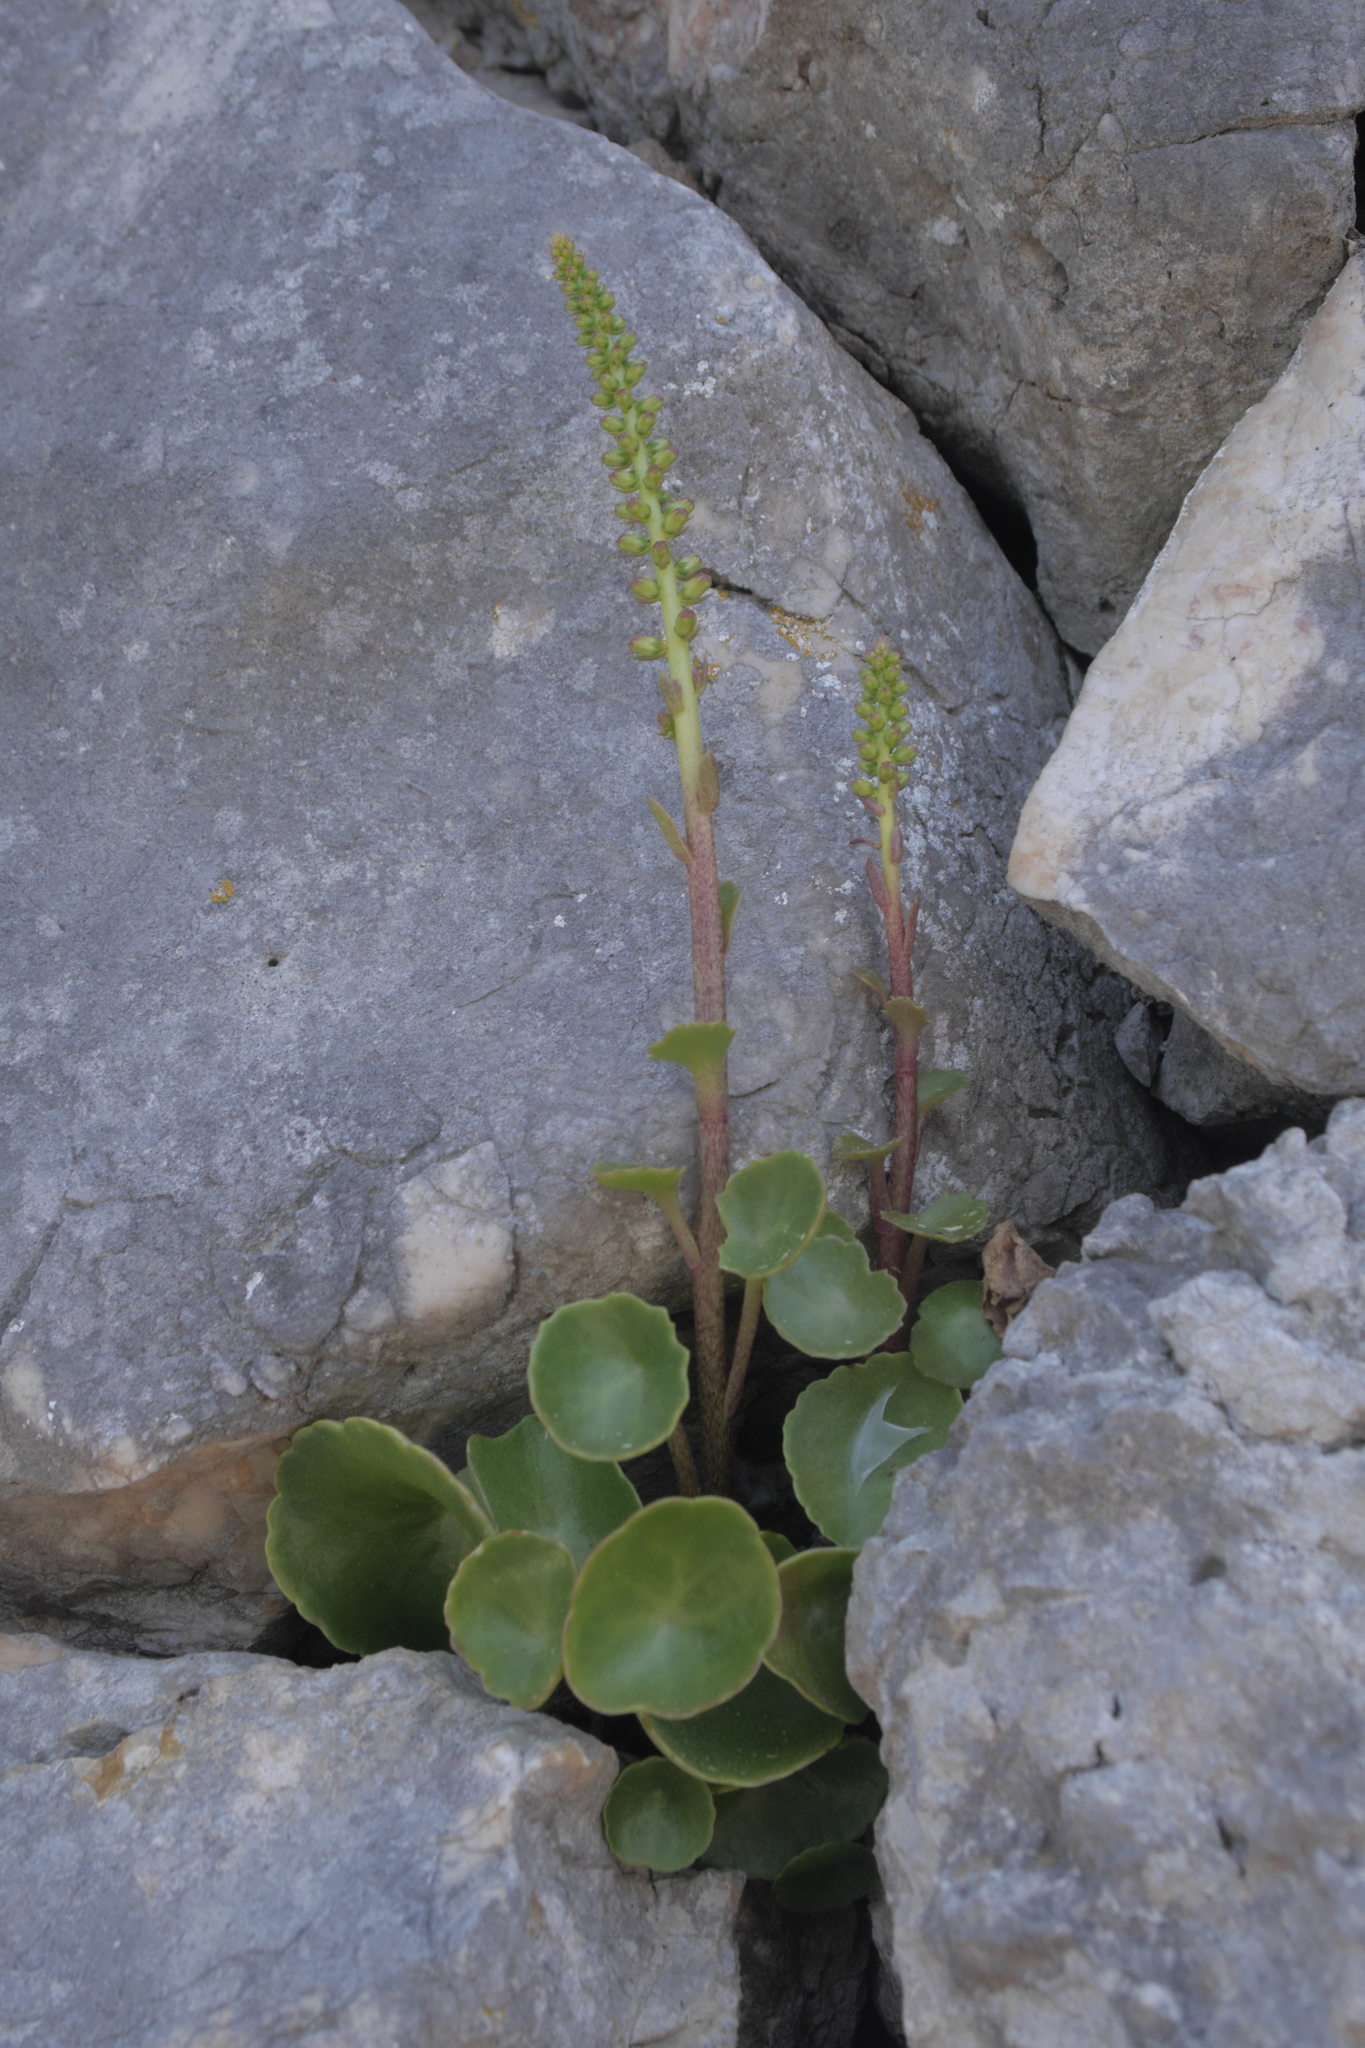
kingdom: Plantae
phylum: Tracheophyta
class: Magnoliopsida
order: Saxifragales
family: Crassulaceae
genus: Umbilicus
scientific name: Umbilicus horizontalis
